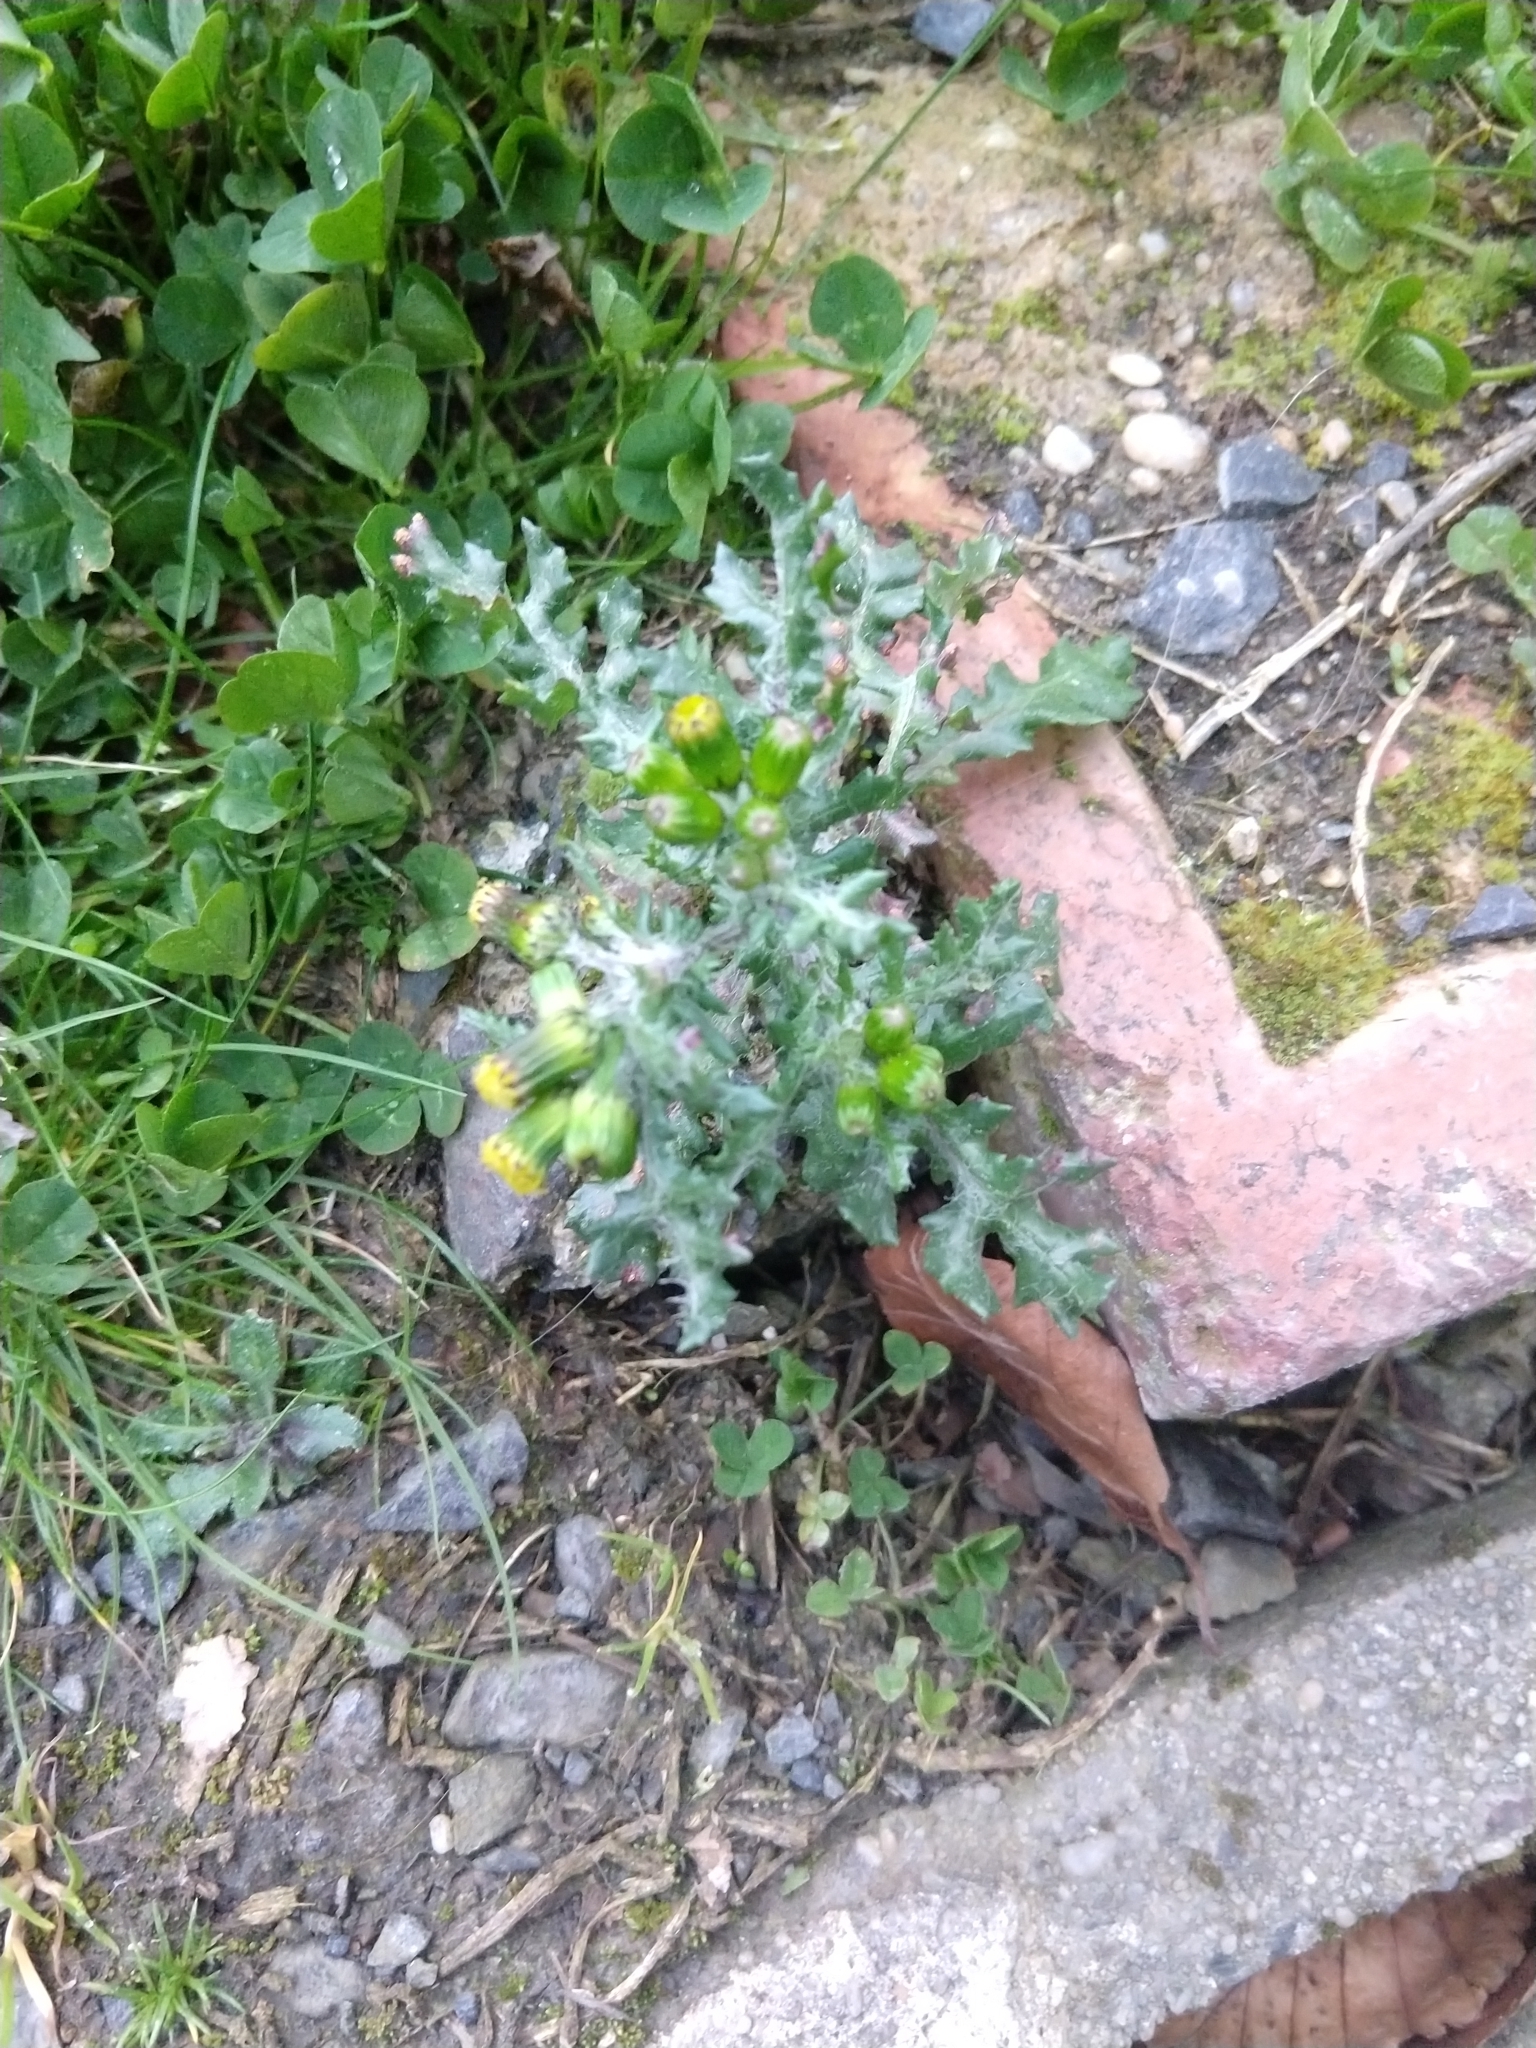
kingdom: Plantae
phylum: Tracheophyta
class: Magnoliopsida
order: Asterales
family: Asteraceae
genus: Senecio
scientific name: Senecio vulgaris
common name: Old-man-in-the-spring
